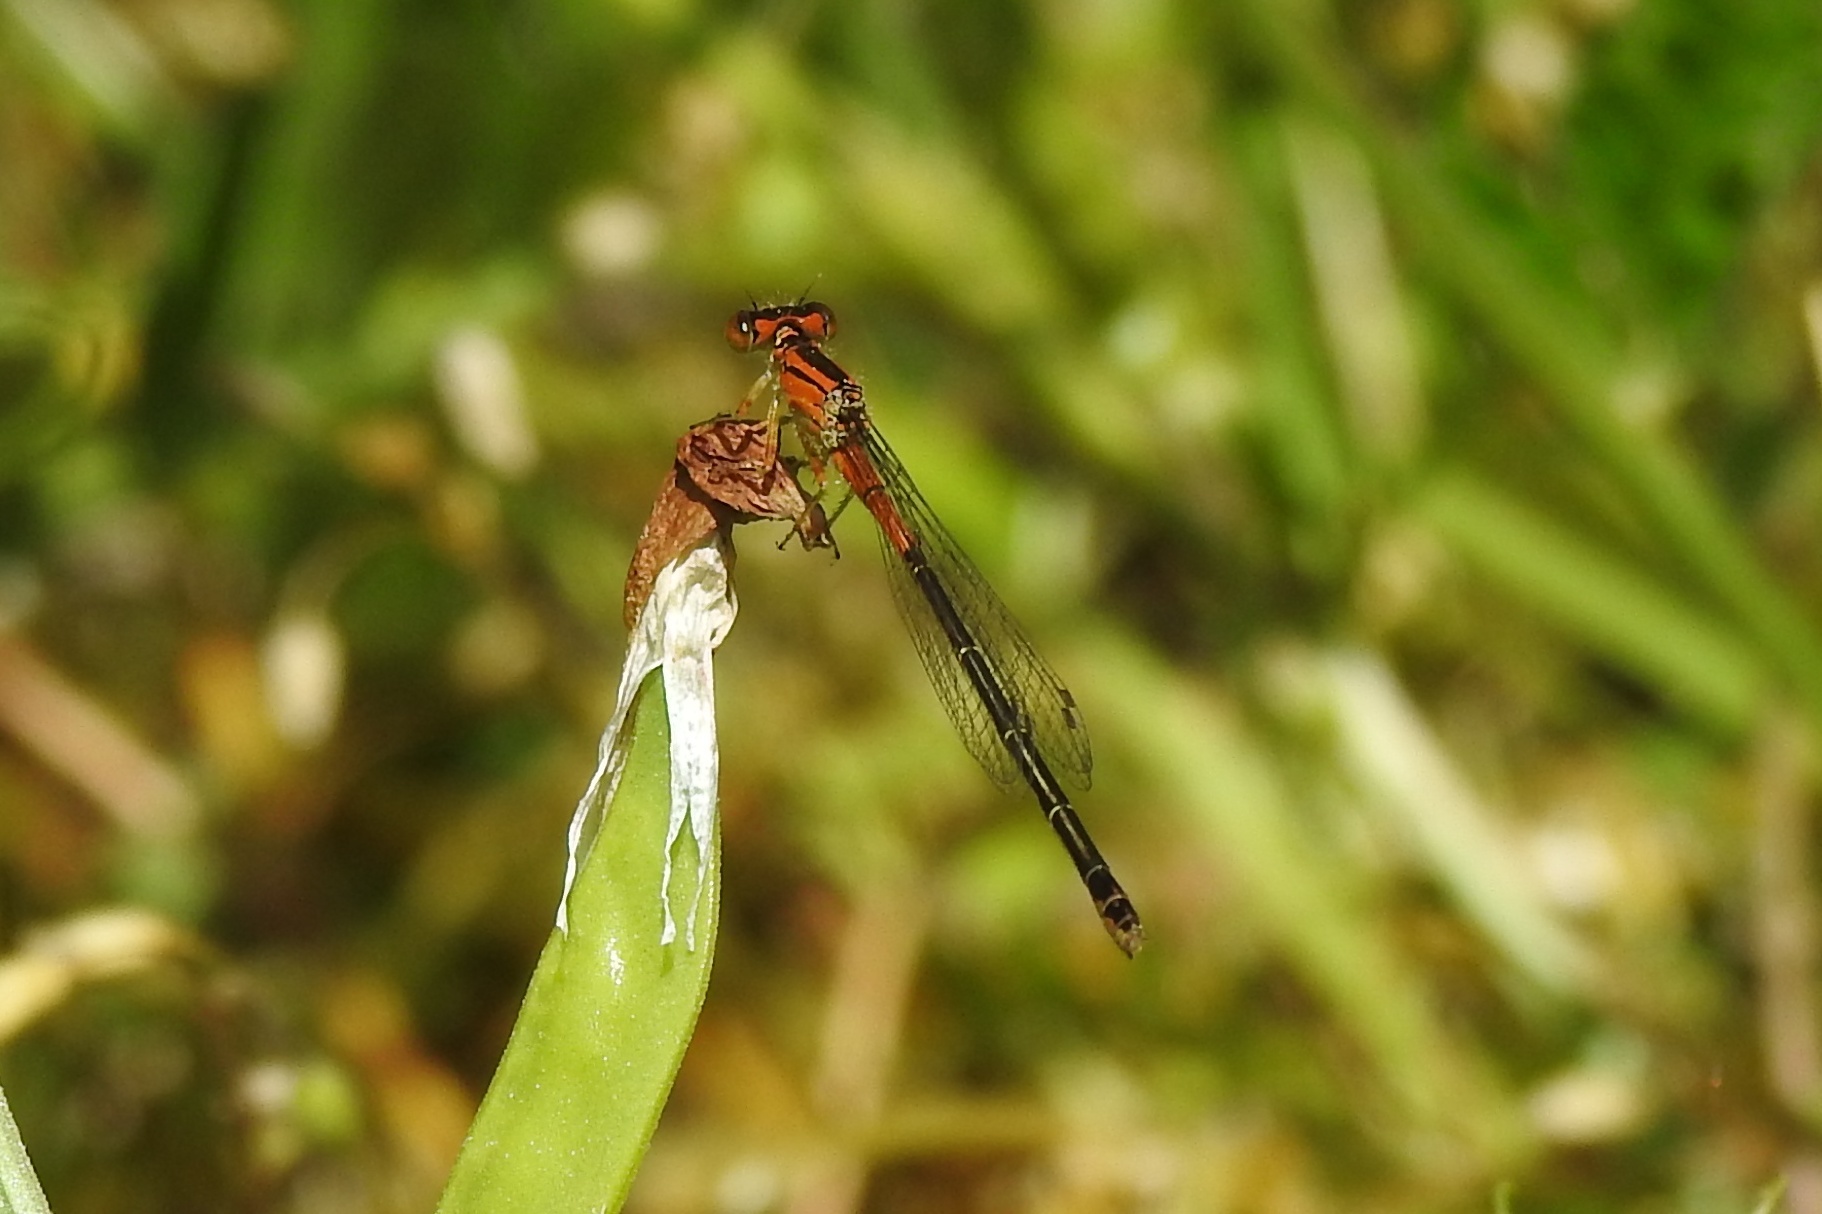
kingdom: Animalia
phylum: Arthropoda
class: Insecta
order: Odonata
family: Coenagrionidae
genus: Ischnura
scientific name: Ischnura verticalis
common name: Eastern forktail
